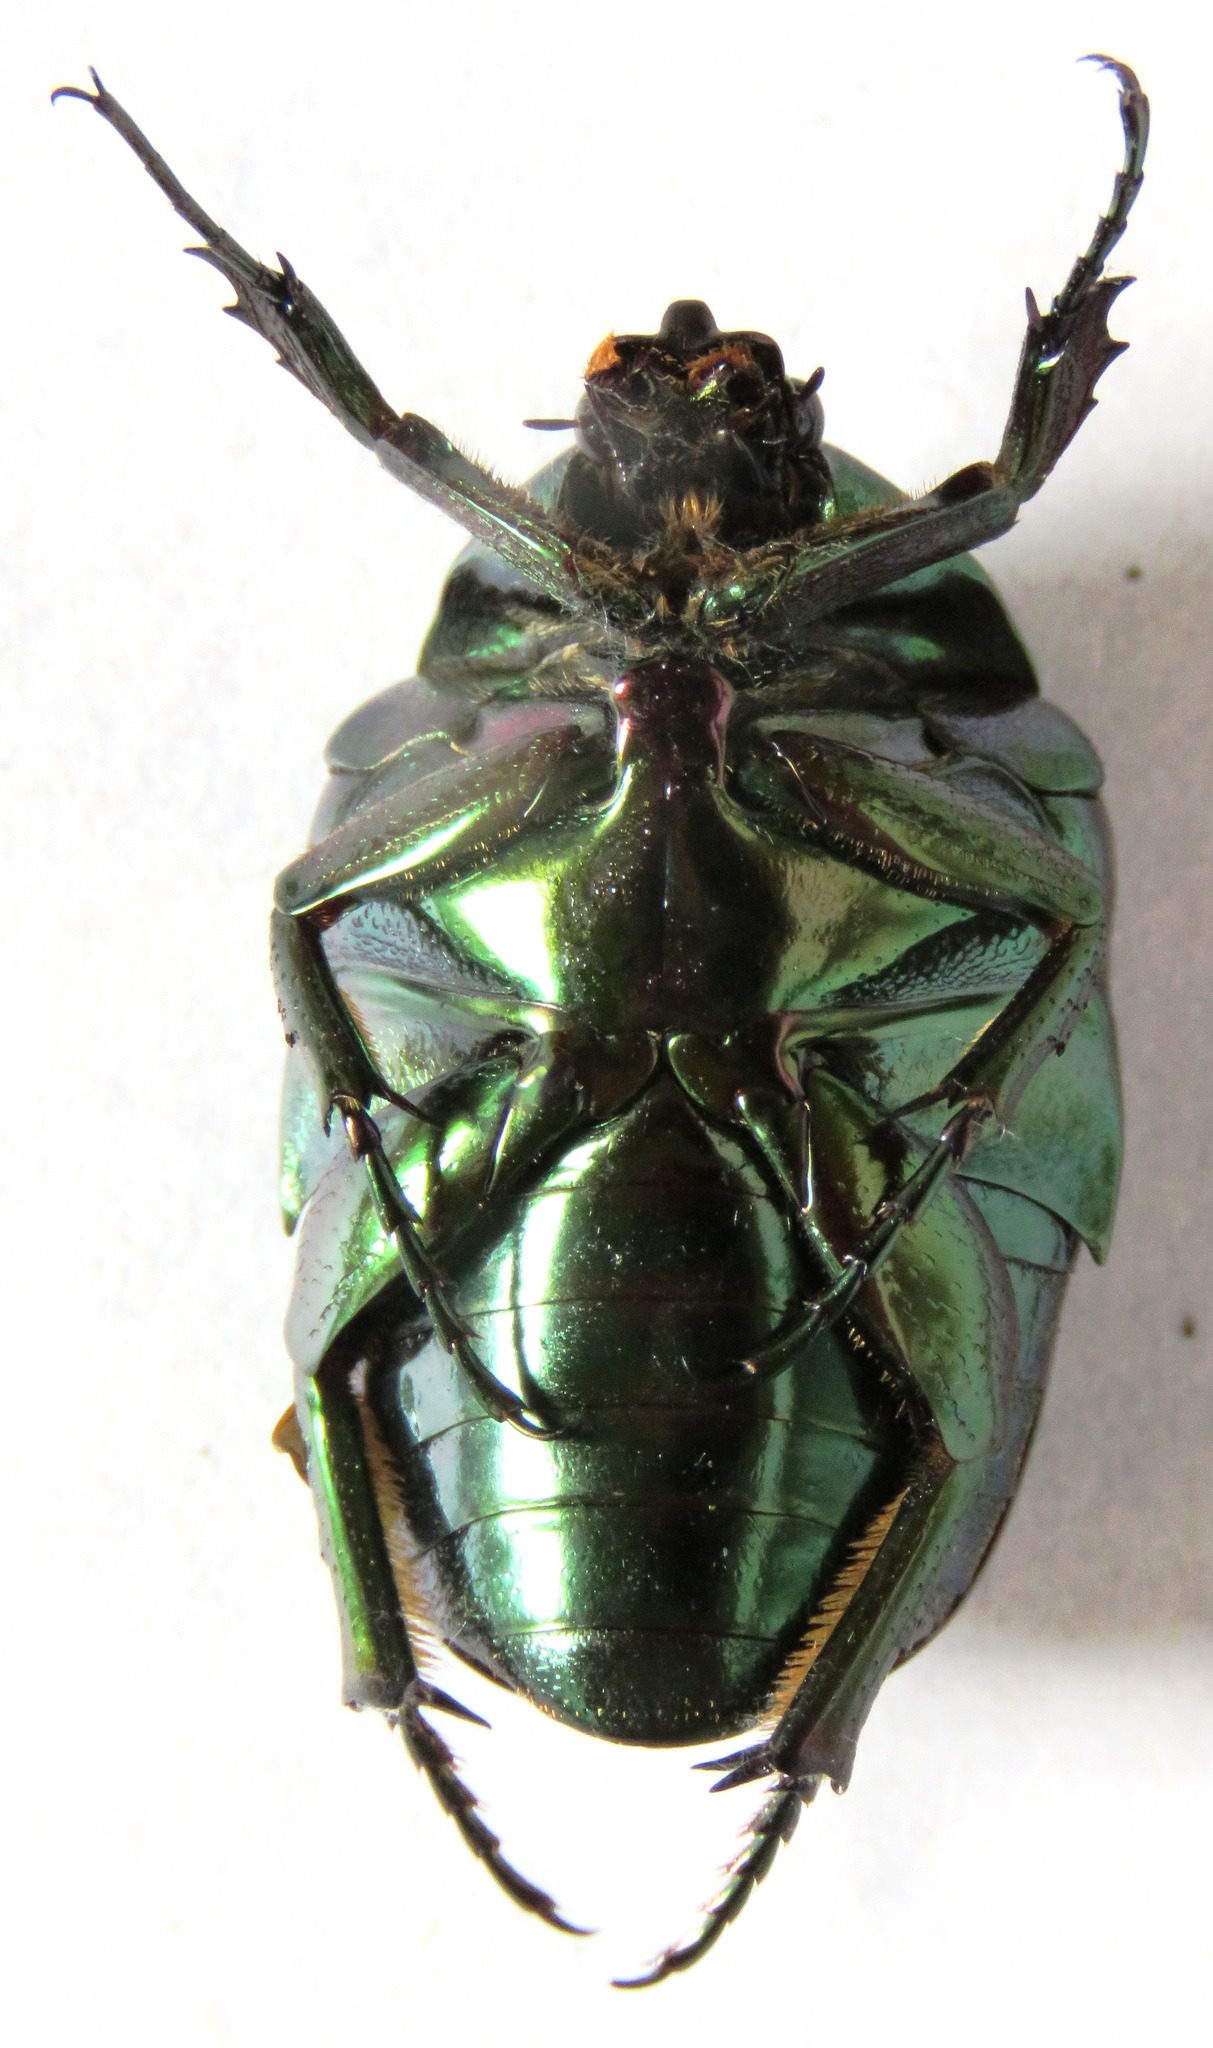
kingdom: Animalia
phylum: Arthropoda
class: Insecta
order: Coleoptera
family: Scarabaeidae
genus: Cotinis
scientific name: Cotinis mutabilis
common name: Figeater beetle
